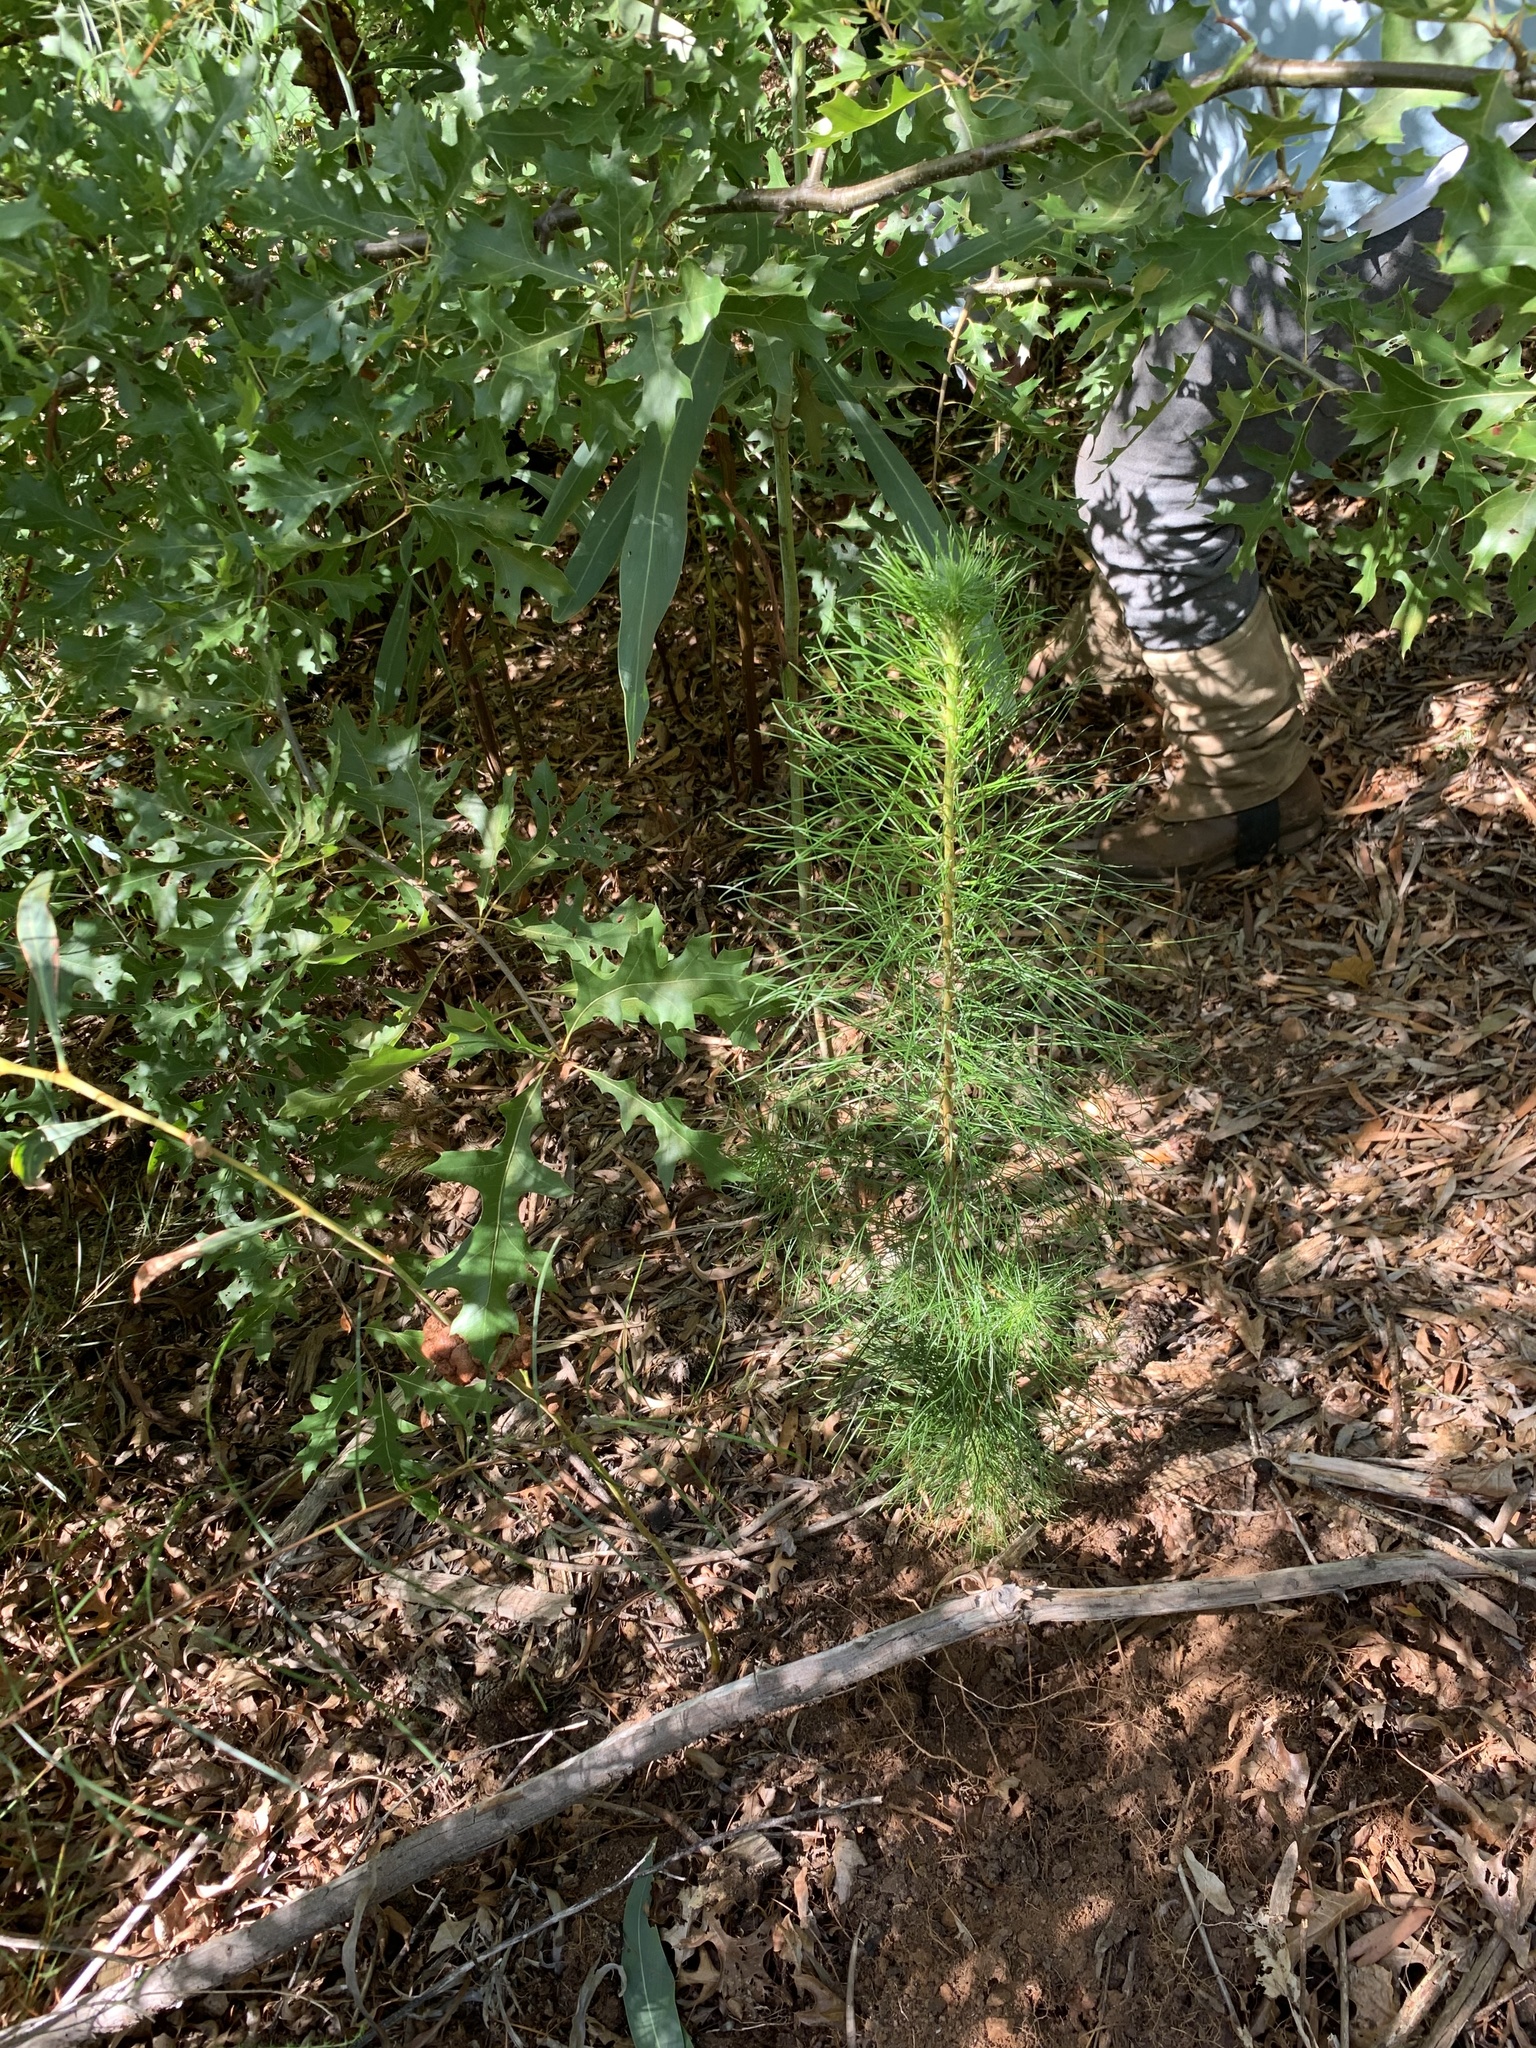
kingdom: Plantae
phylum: Tracheophyta
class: Pinopsida
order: Pinales
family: Pinaceae
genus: Pinus
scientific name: Pinus radiata
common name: Monterey pine
